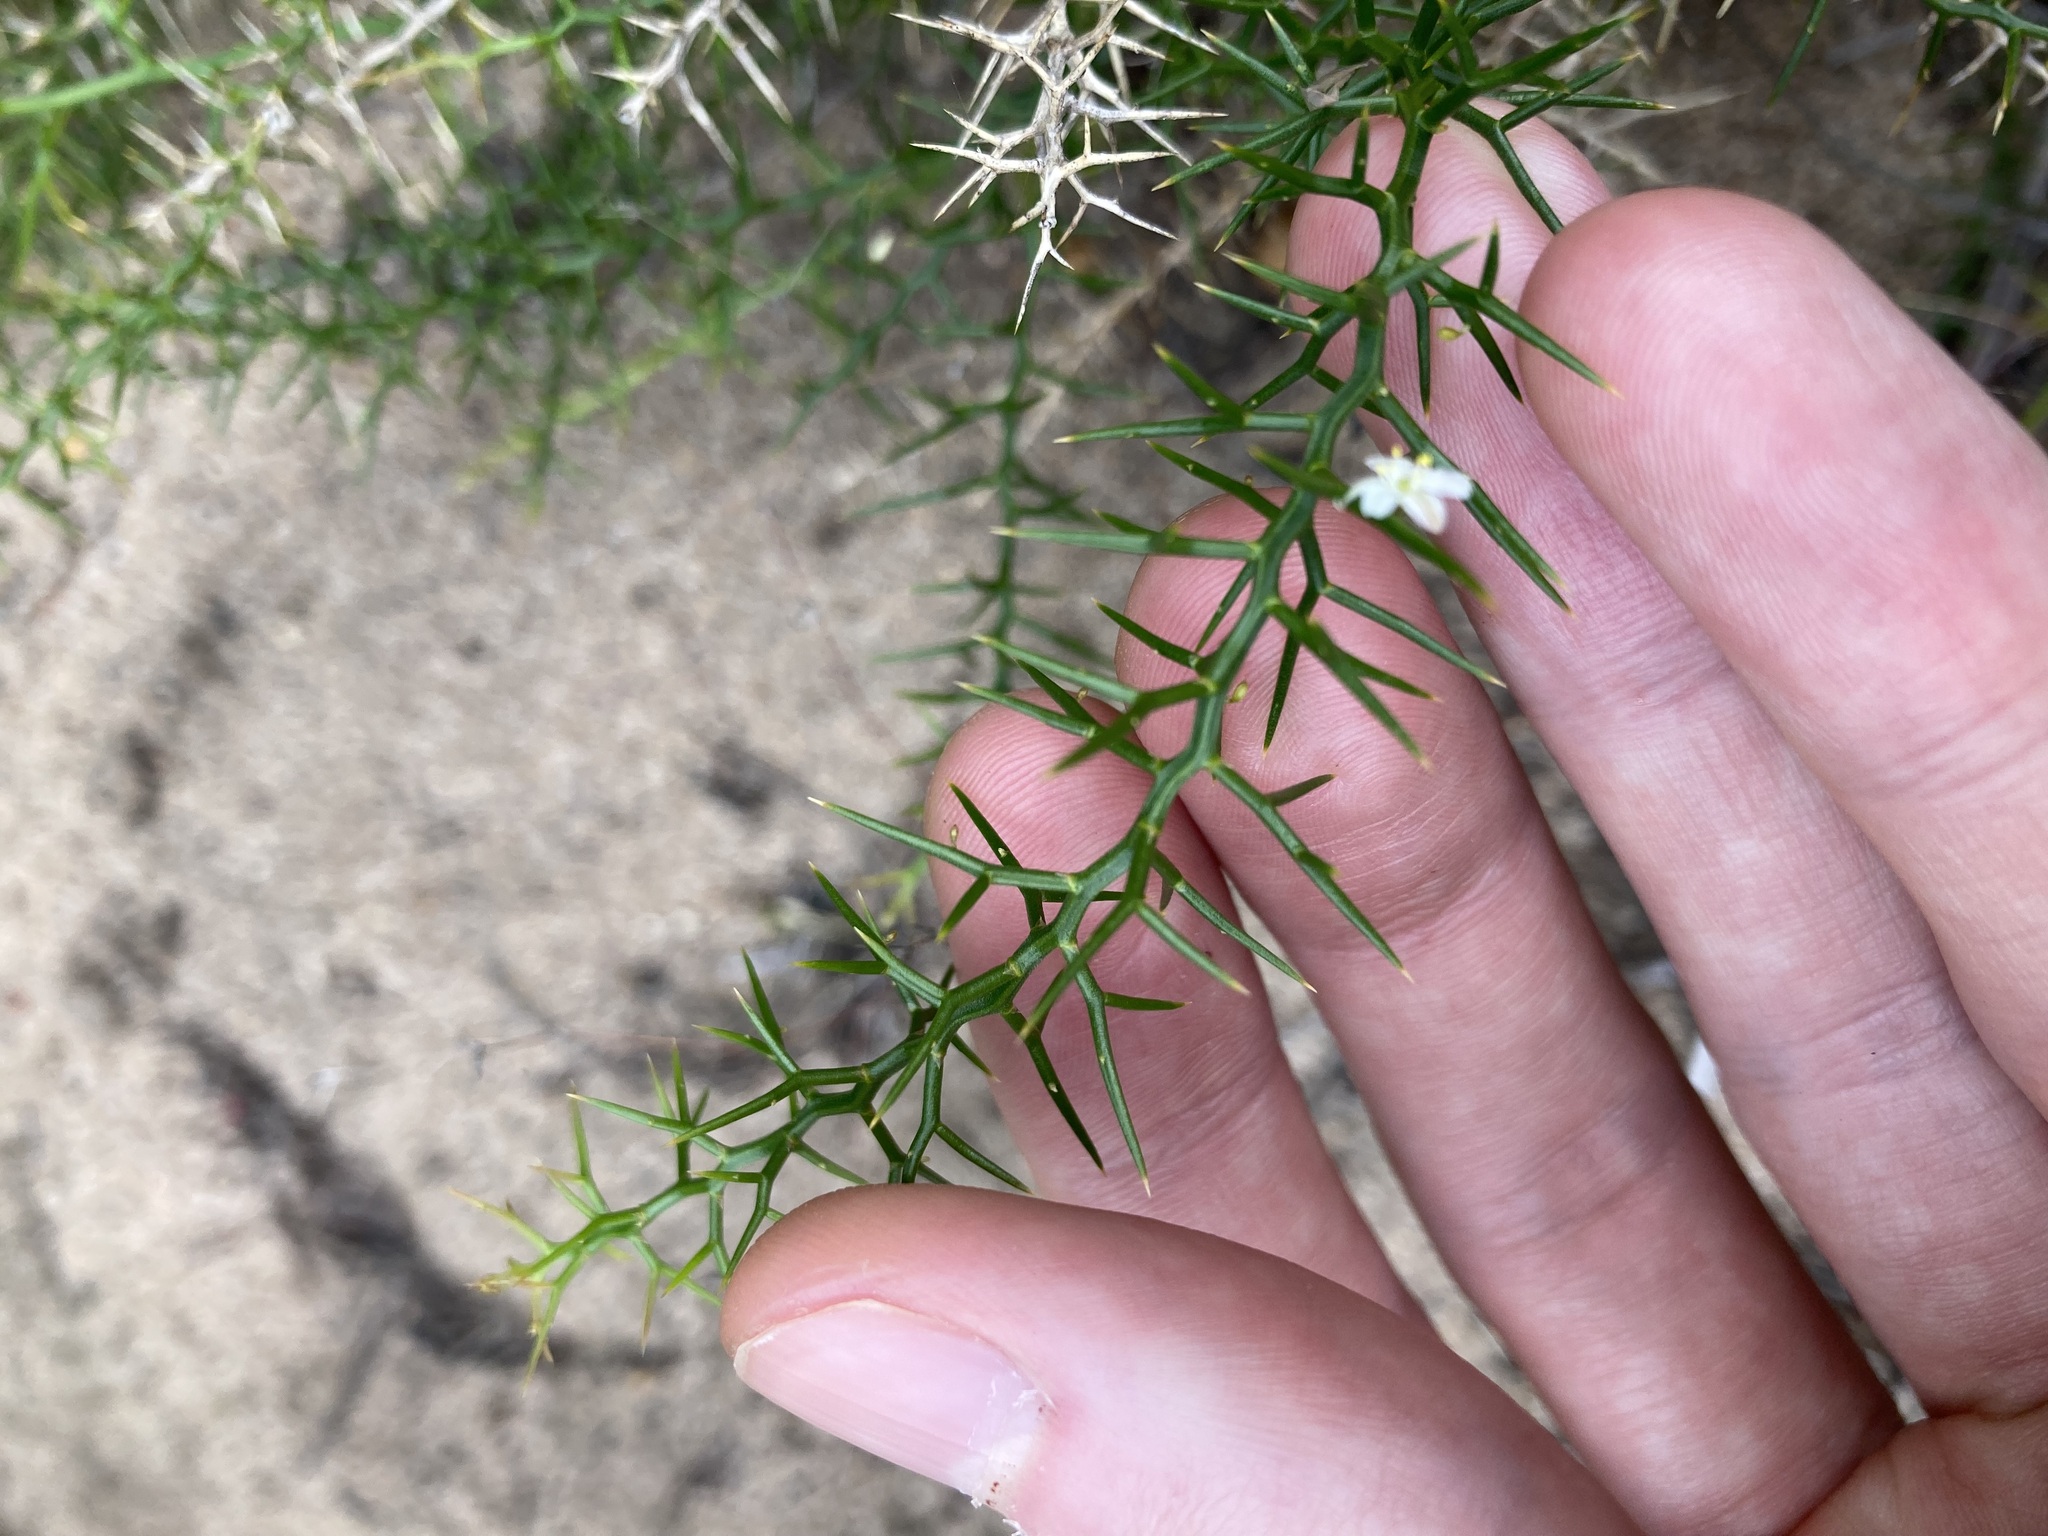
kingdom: Plantae
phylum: Tracheophyta
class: Liliopsida
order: Asparagales
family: Asphodelaceae
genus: Corynotheca
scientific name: Corynotheca acanthoclada
